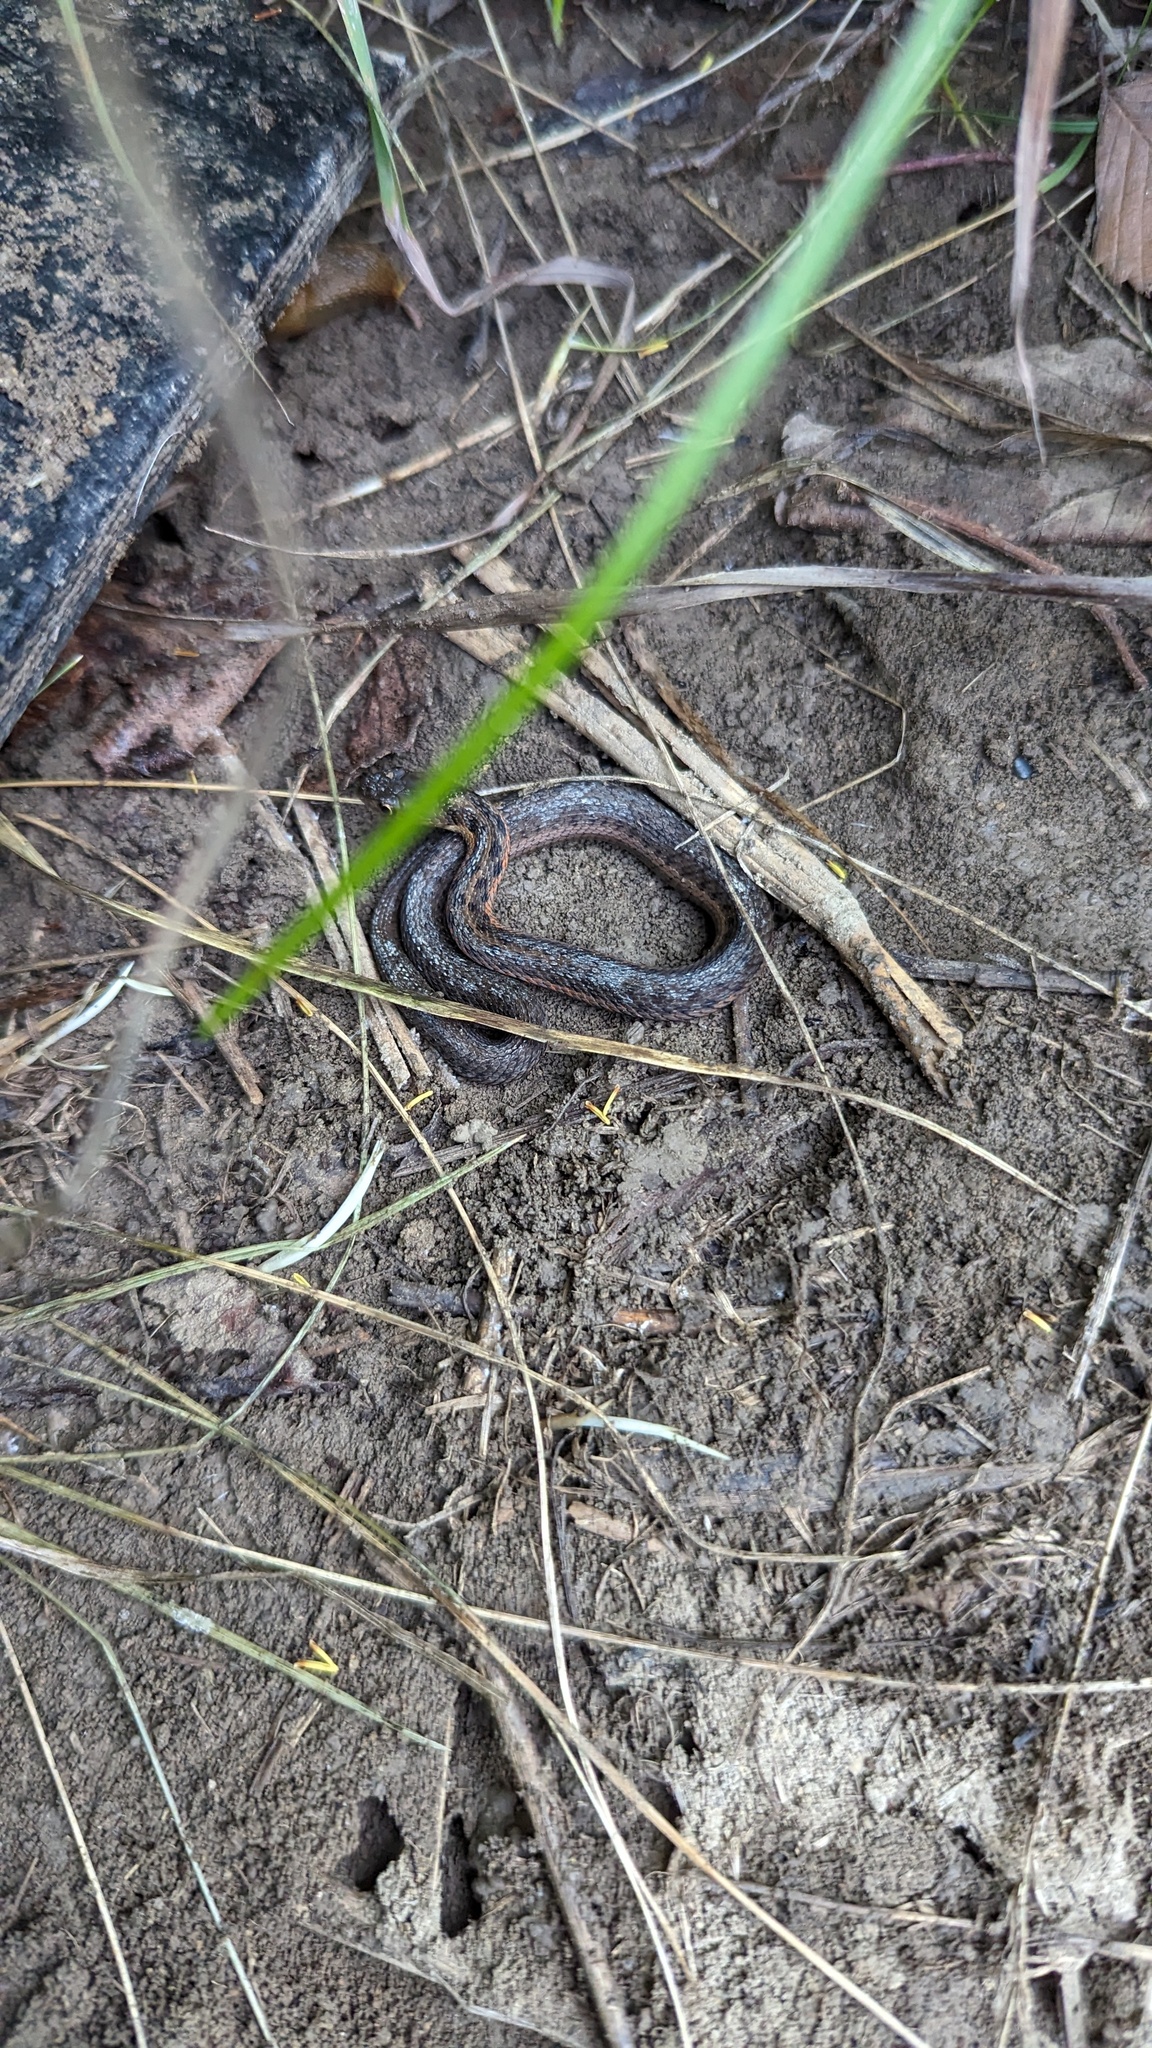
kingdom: Animalia
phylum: Chordata
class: Squamata
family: Colubridae
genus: Thamnophis
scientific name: Thamnophis sirtalis
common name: Common garter snake
